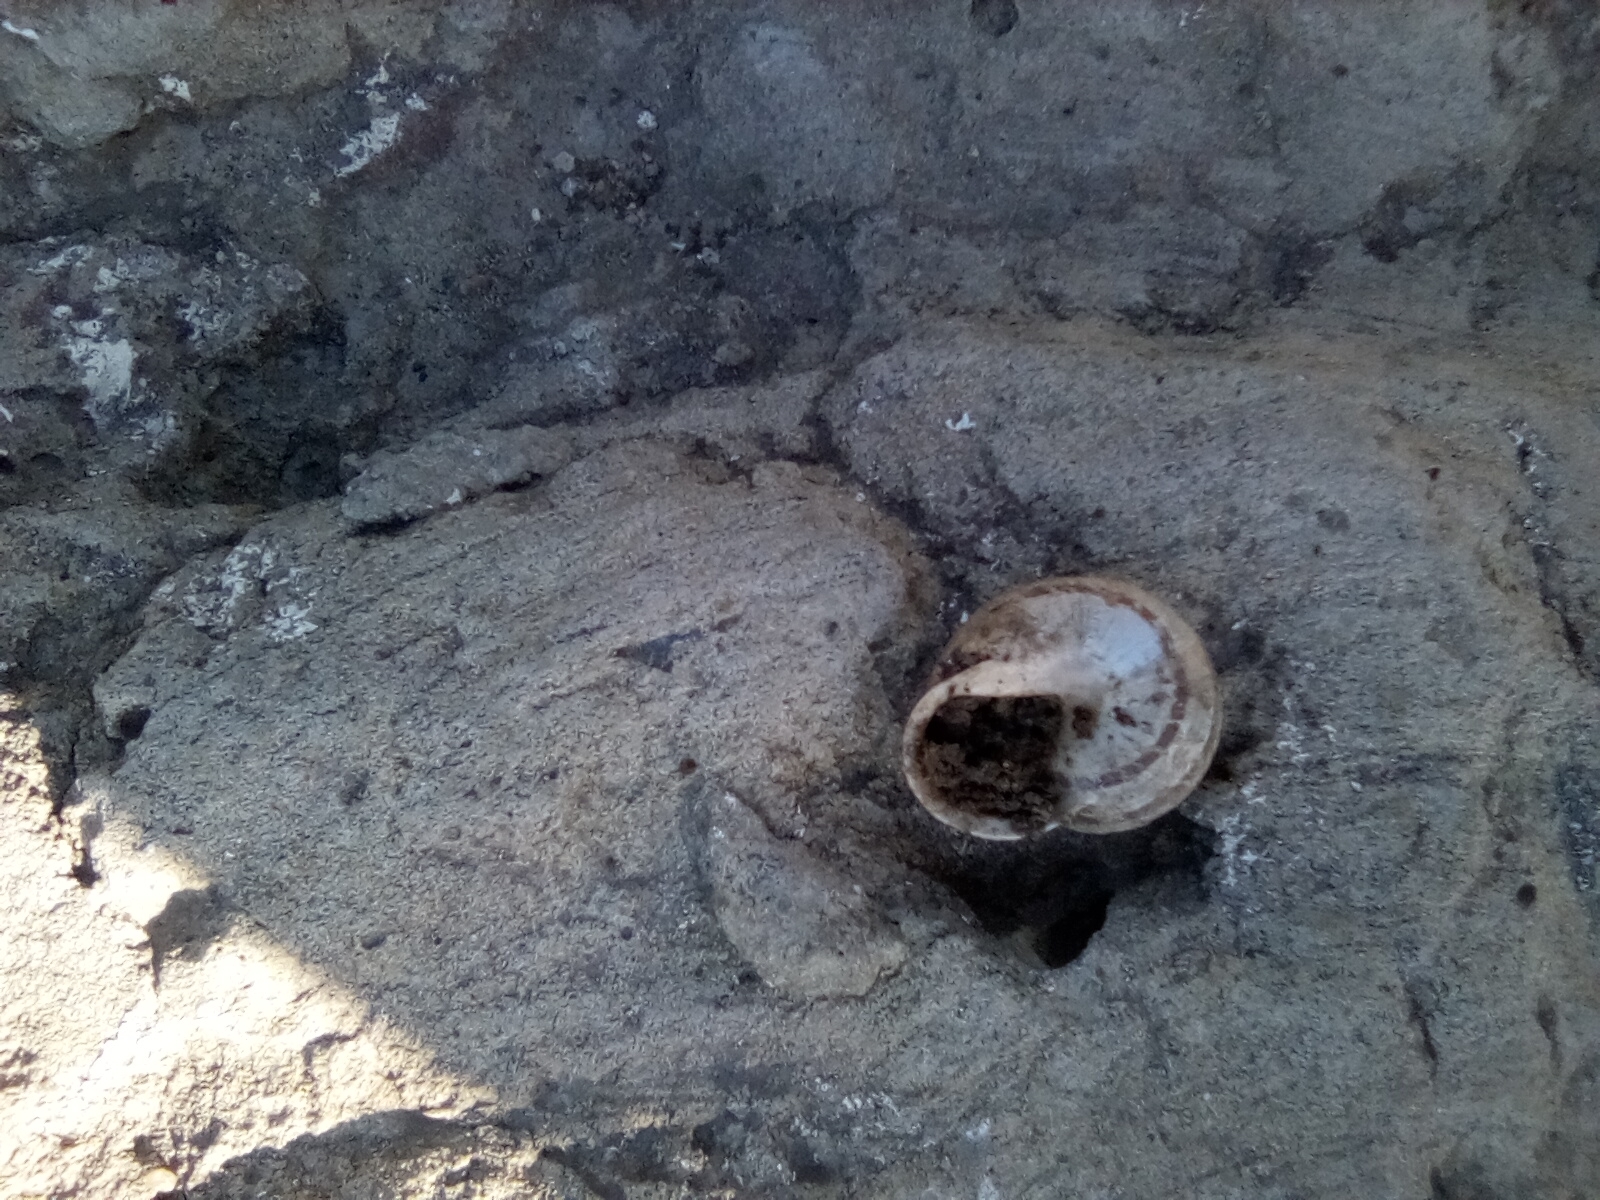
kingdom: Animalia
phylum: Mollusca
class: Gastropoda
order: Stylommatophora
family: Helicidae
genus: Eobania
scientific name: Eobania vermiculata
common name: Chocolateband snail
